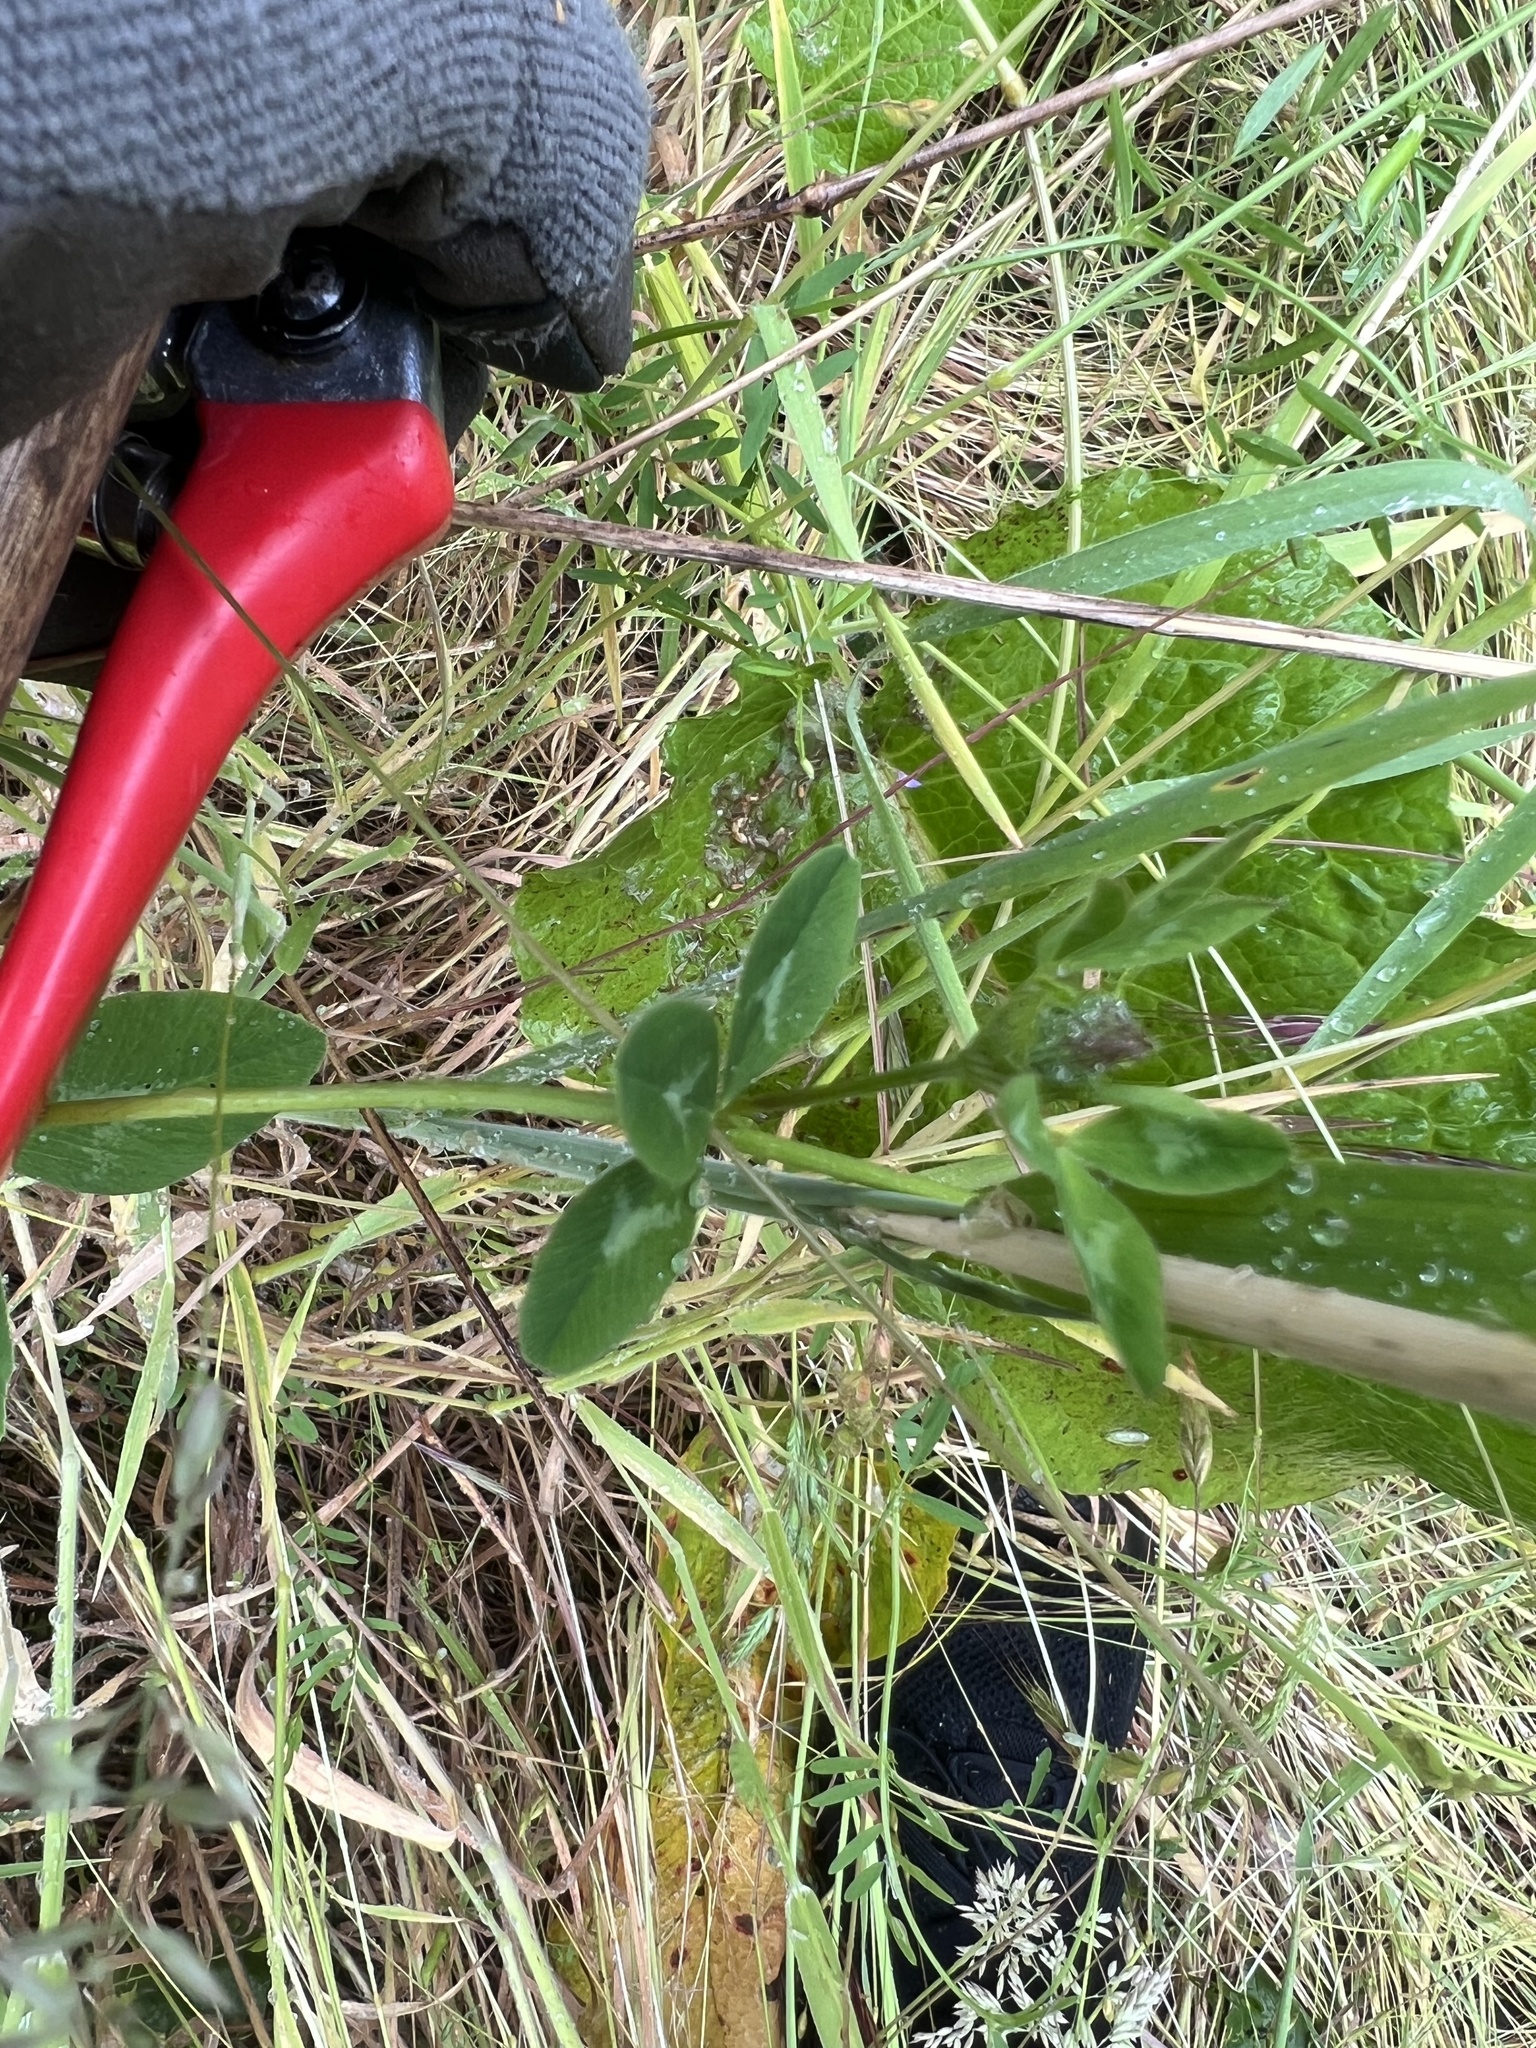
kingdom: Plantae
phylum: Tracheophyta
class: Magnoliopsida
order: Fabales
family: Fabaceae
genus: Trifolium
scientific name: Trifolium pratense
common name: Red clover
